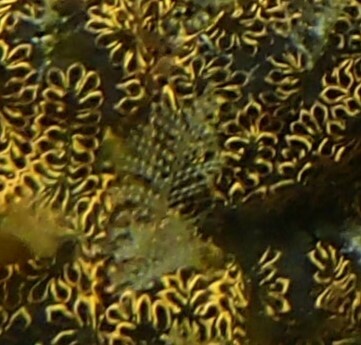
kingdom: Animalia
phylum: Chordata
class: Ascidiacea
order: Stolidobranchia
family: Styelidae
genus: Botrylloides
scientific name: Botrylloides niger
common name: Black synascidia
